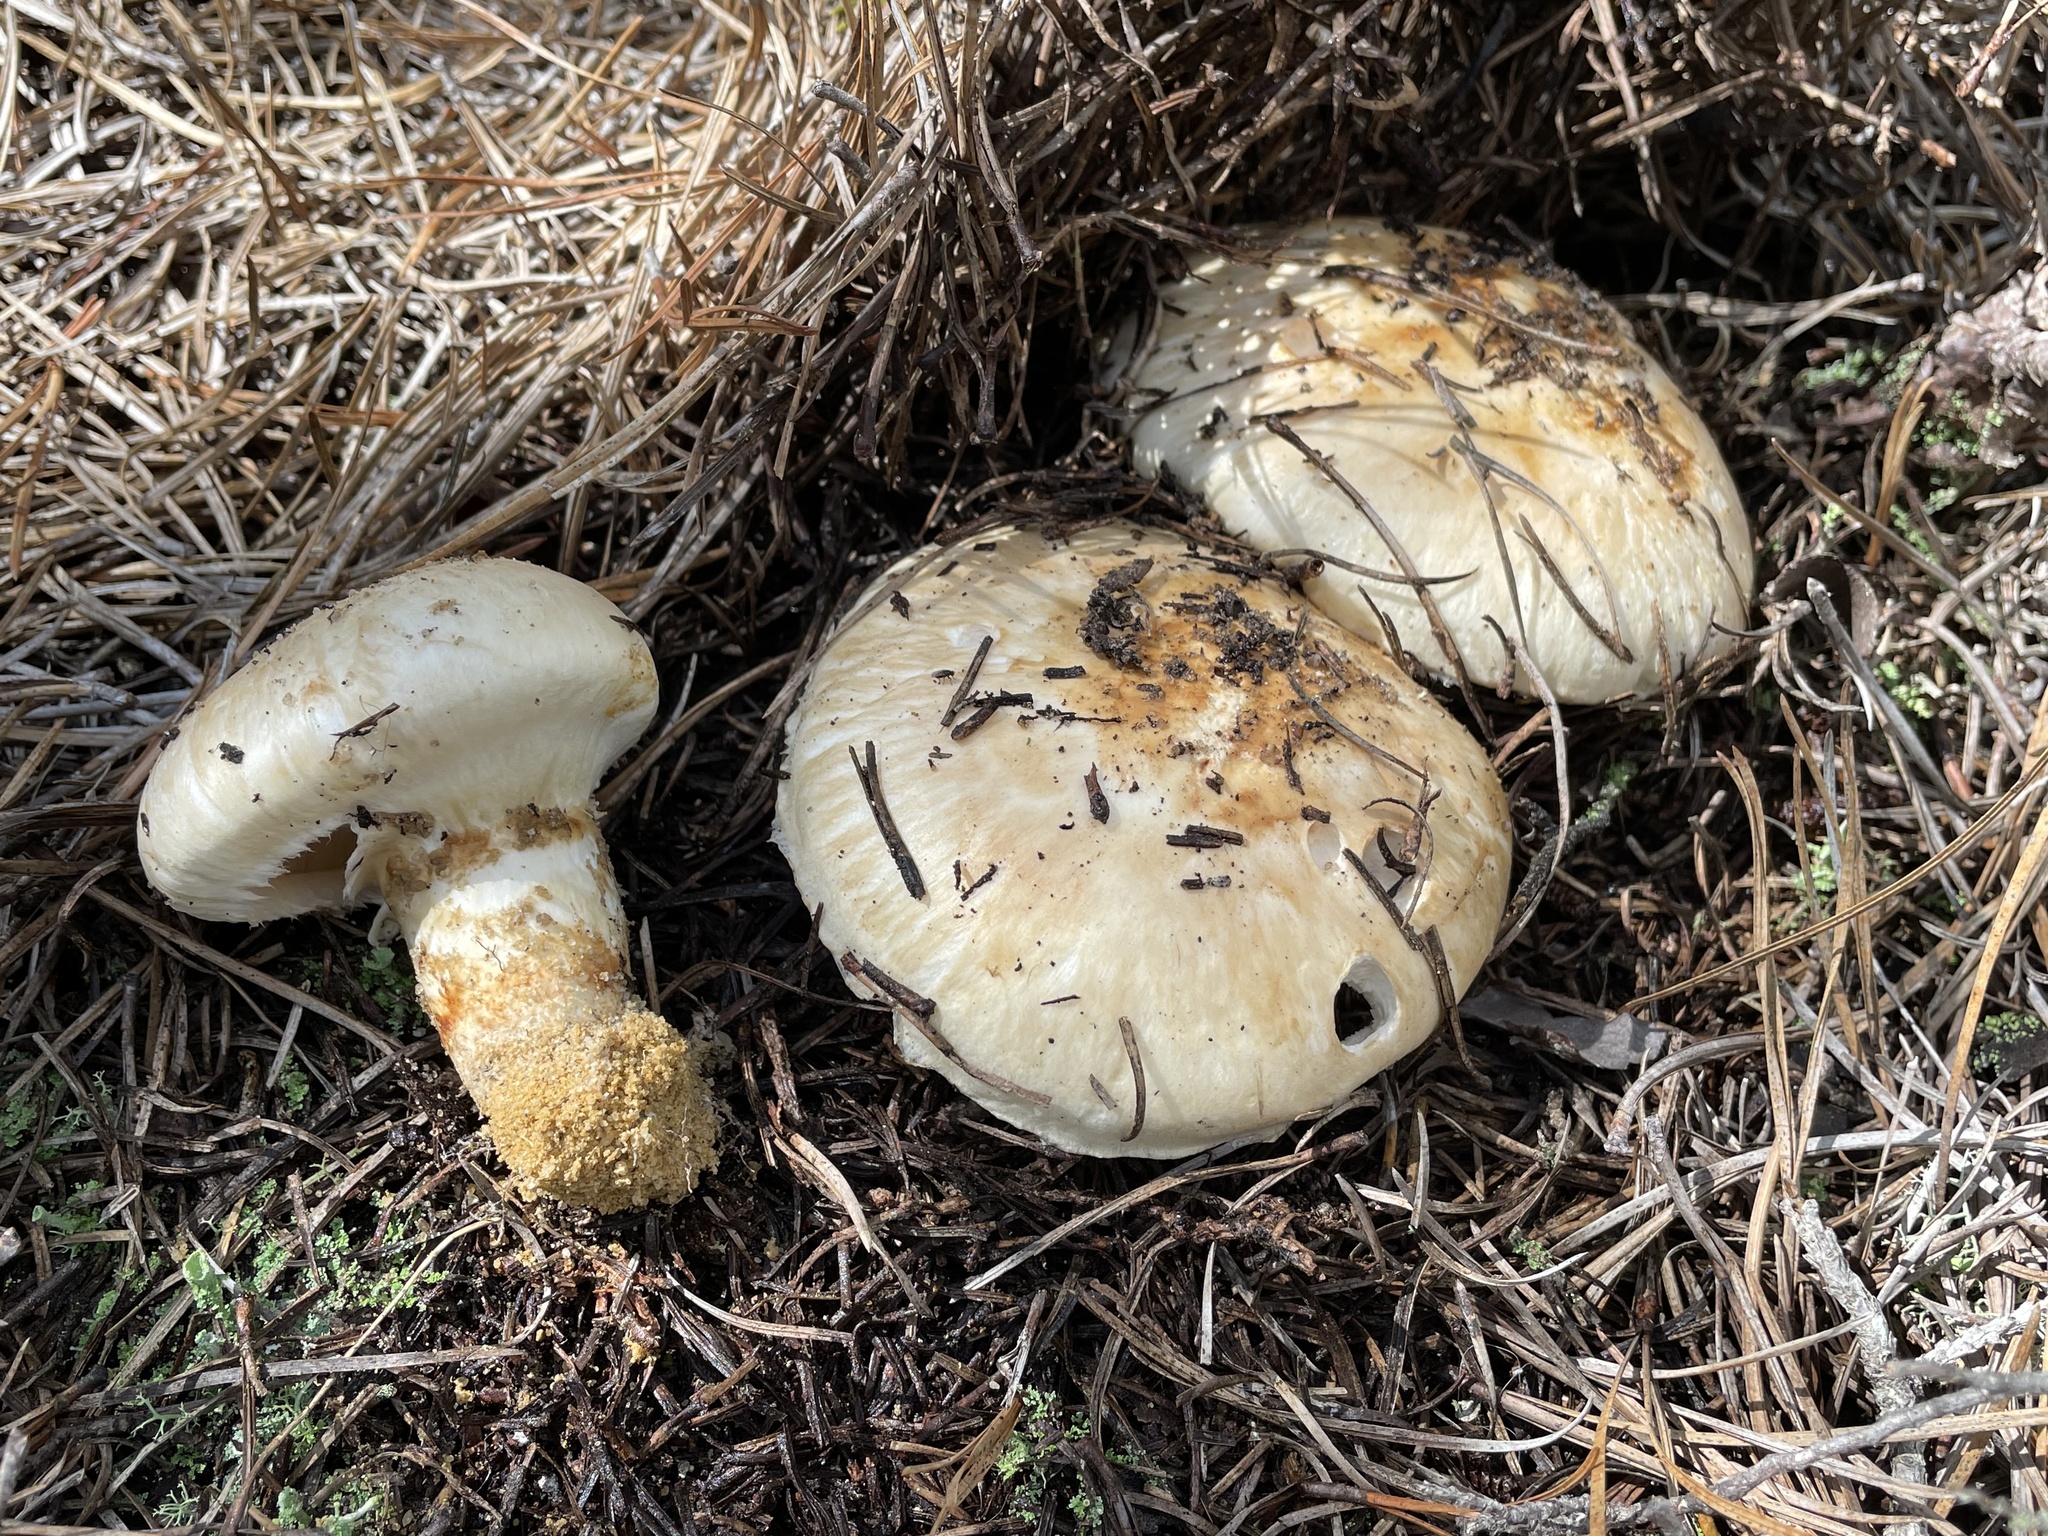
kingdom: Fungi
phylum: Basidiomycota
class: Agaricomycetes
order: Agaricales
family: Tricholomataceae
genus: Tricholoma
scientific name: Tricholoma magnivelare
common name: American matsutake
